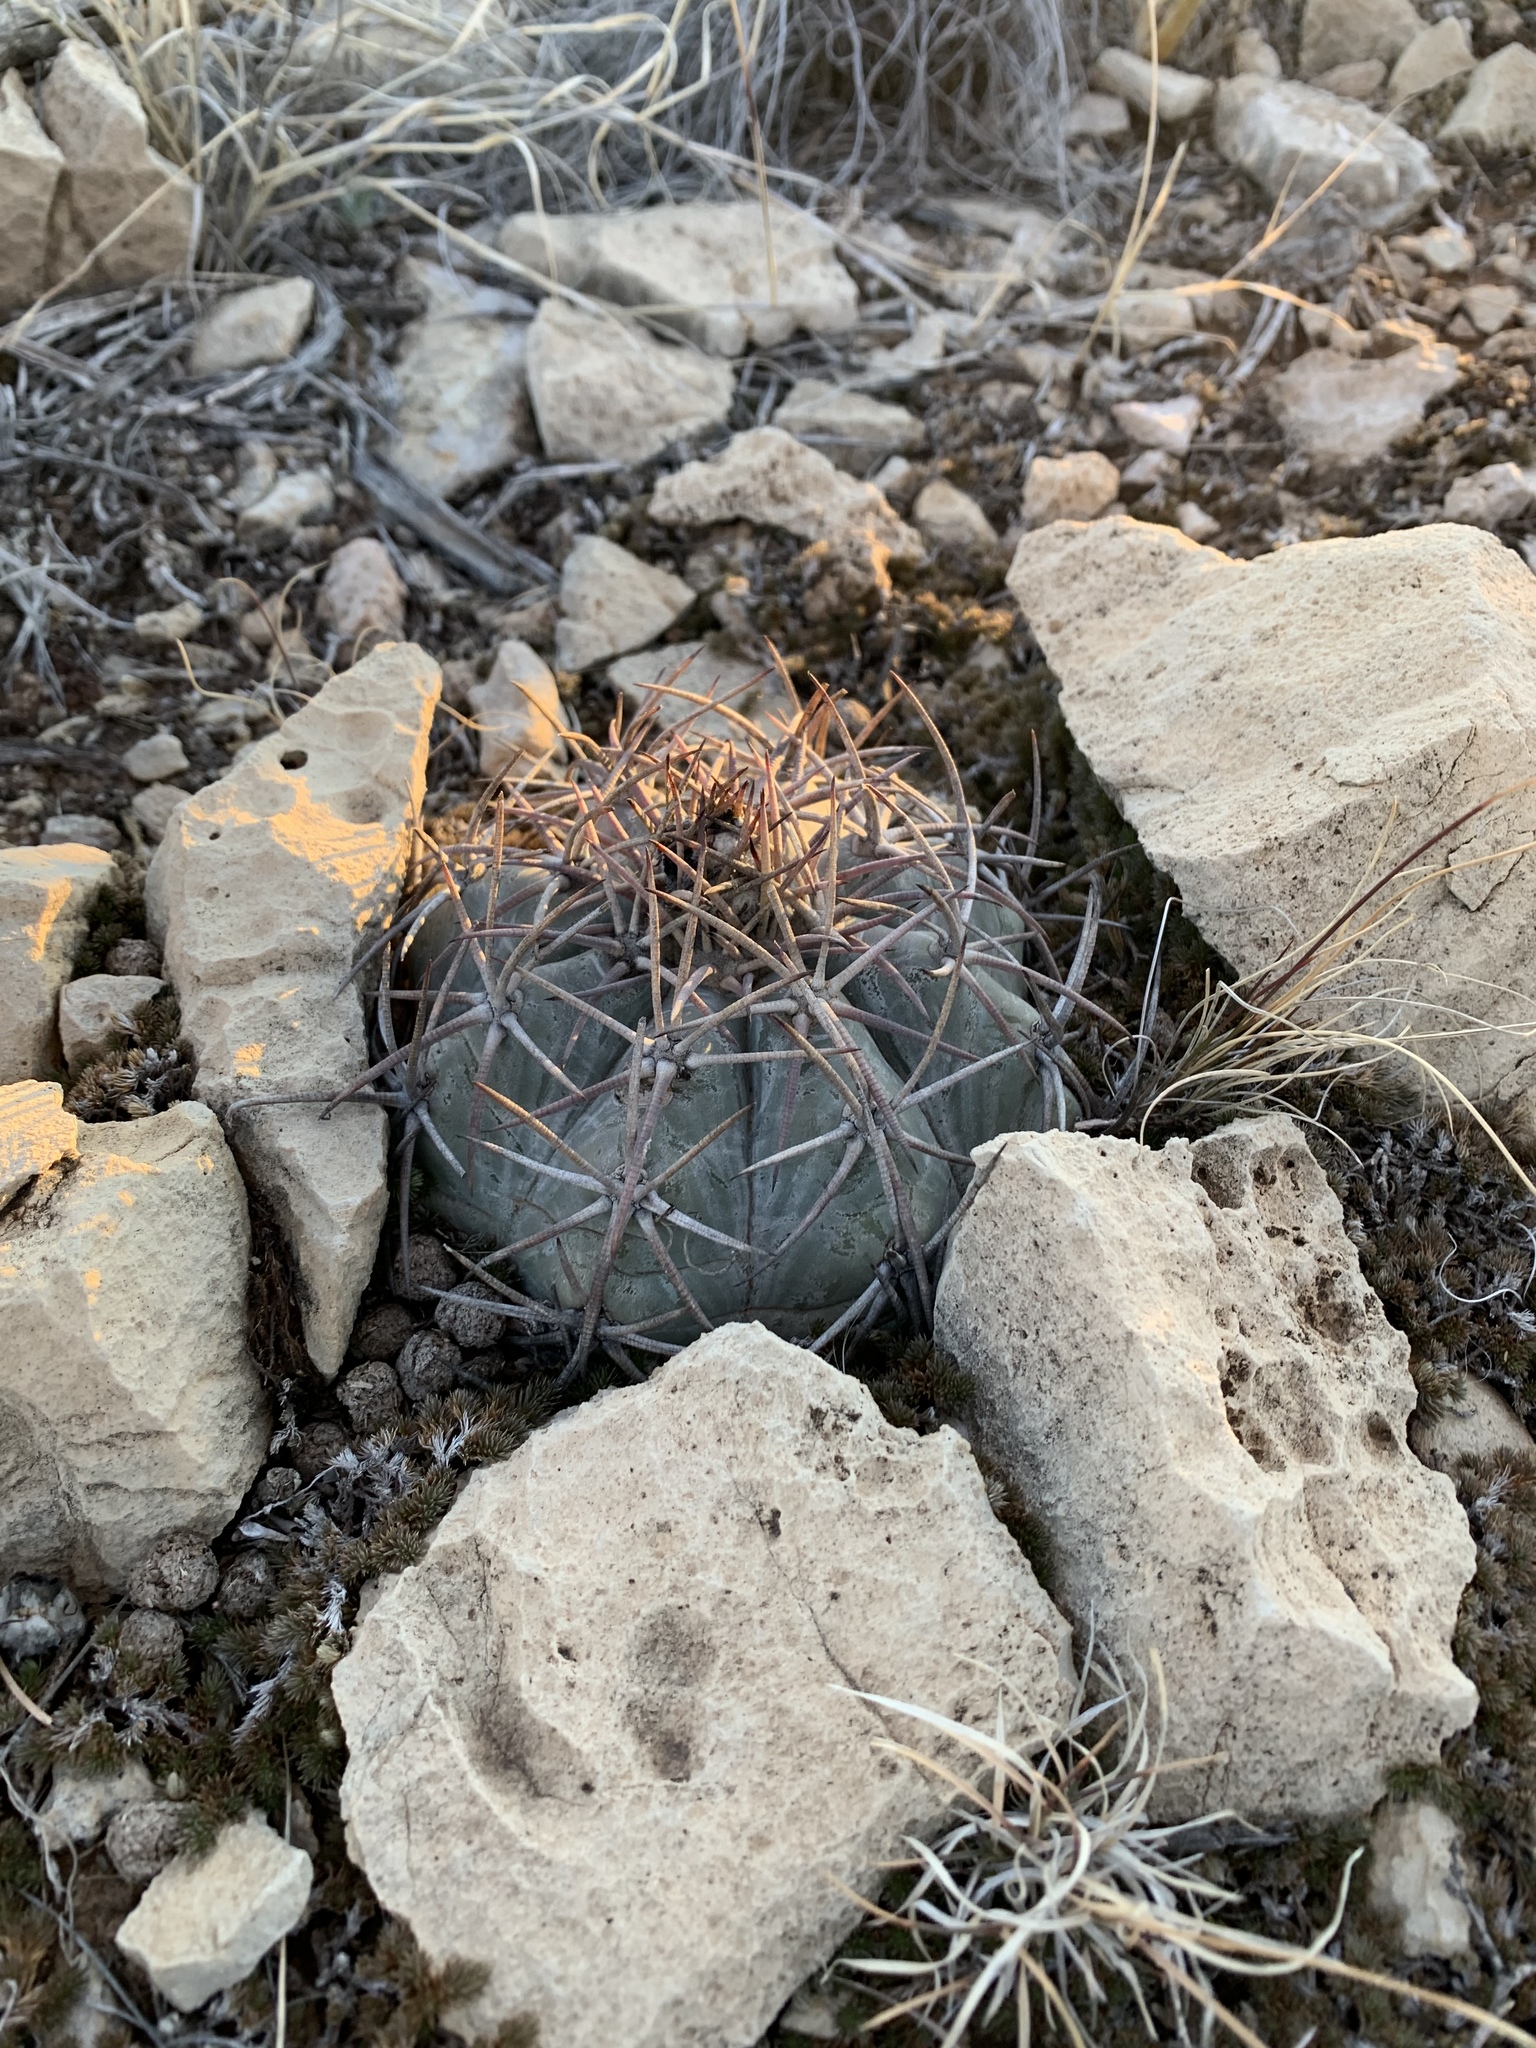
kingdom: Plantae
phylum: Tracheophyta
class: Magnoliopsida
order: Caryophyllales
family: Cactaceae
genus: Echinocactus
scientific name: Echinocactus horizonthalonius
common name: Devilshead
